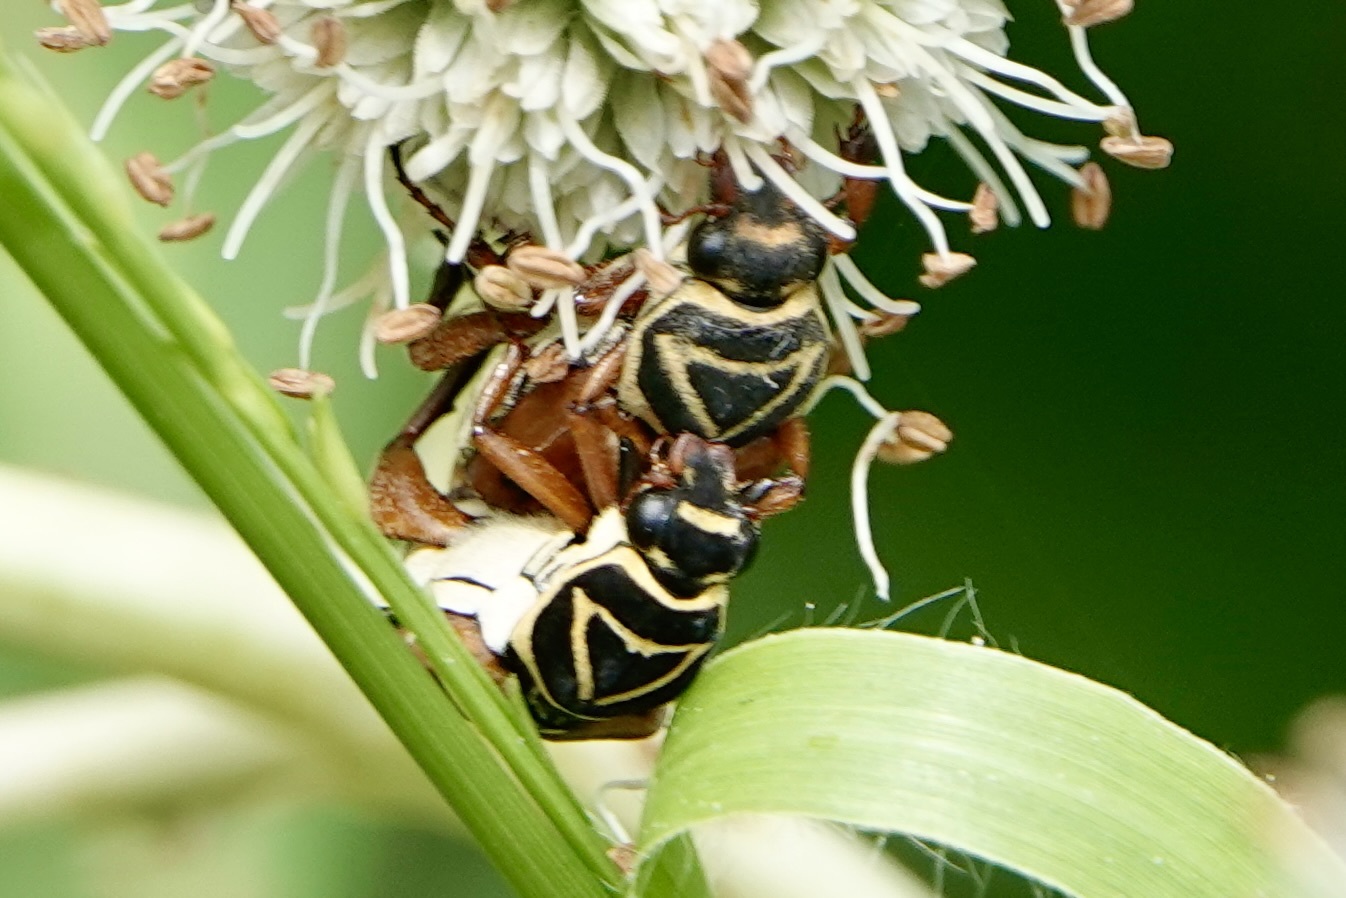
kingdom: Animalia
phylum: Arthropoda
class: Insecta
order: Coleoptera
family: Scarabaeidae
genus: Trigonopeltastes
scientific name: Trigonopeltastes delta
